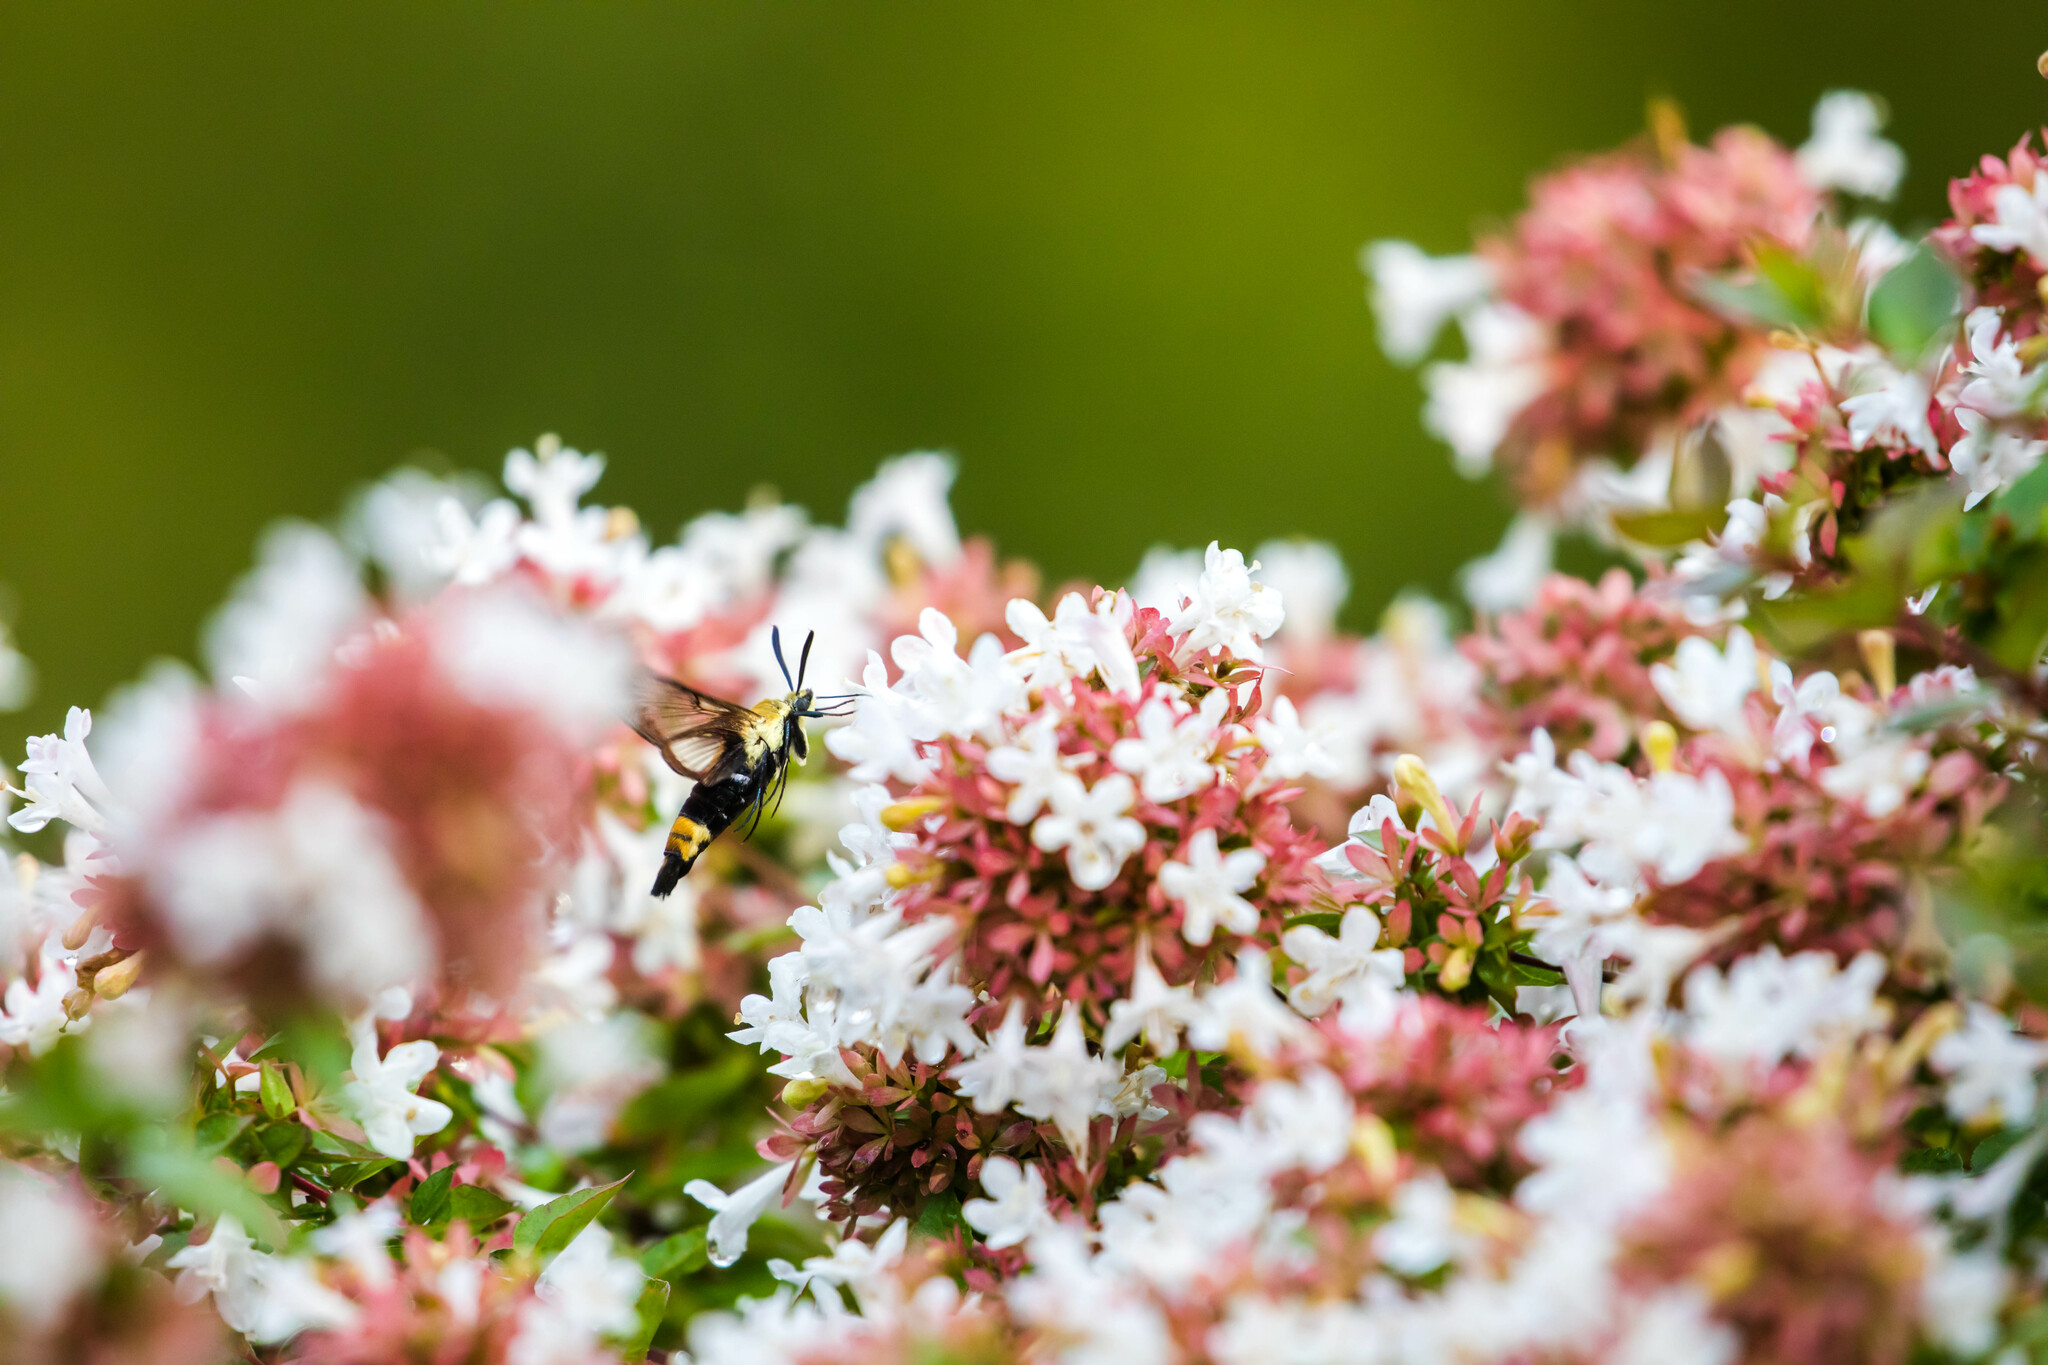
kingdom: Animalia
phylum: Arthropoda
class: Insecta
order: Lepidoptera
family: Sphingidae
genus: Hemaris
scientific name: Hemaris diffinis
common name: Bumblebee moth
